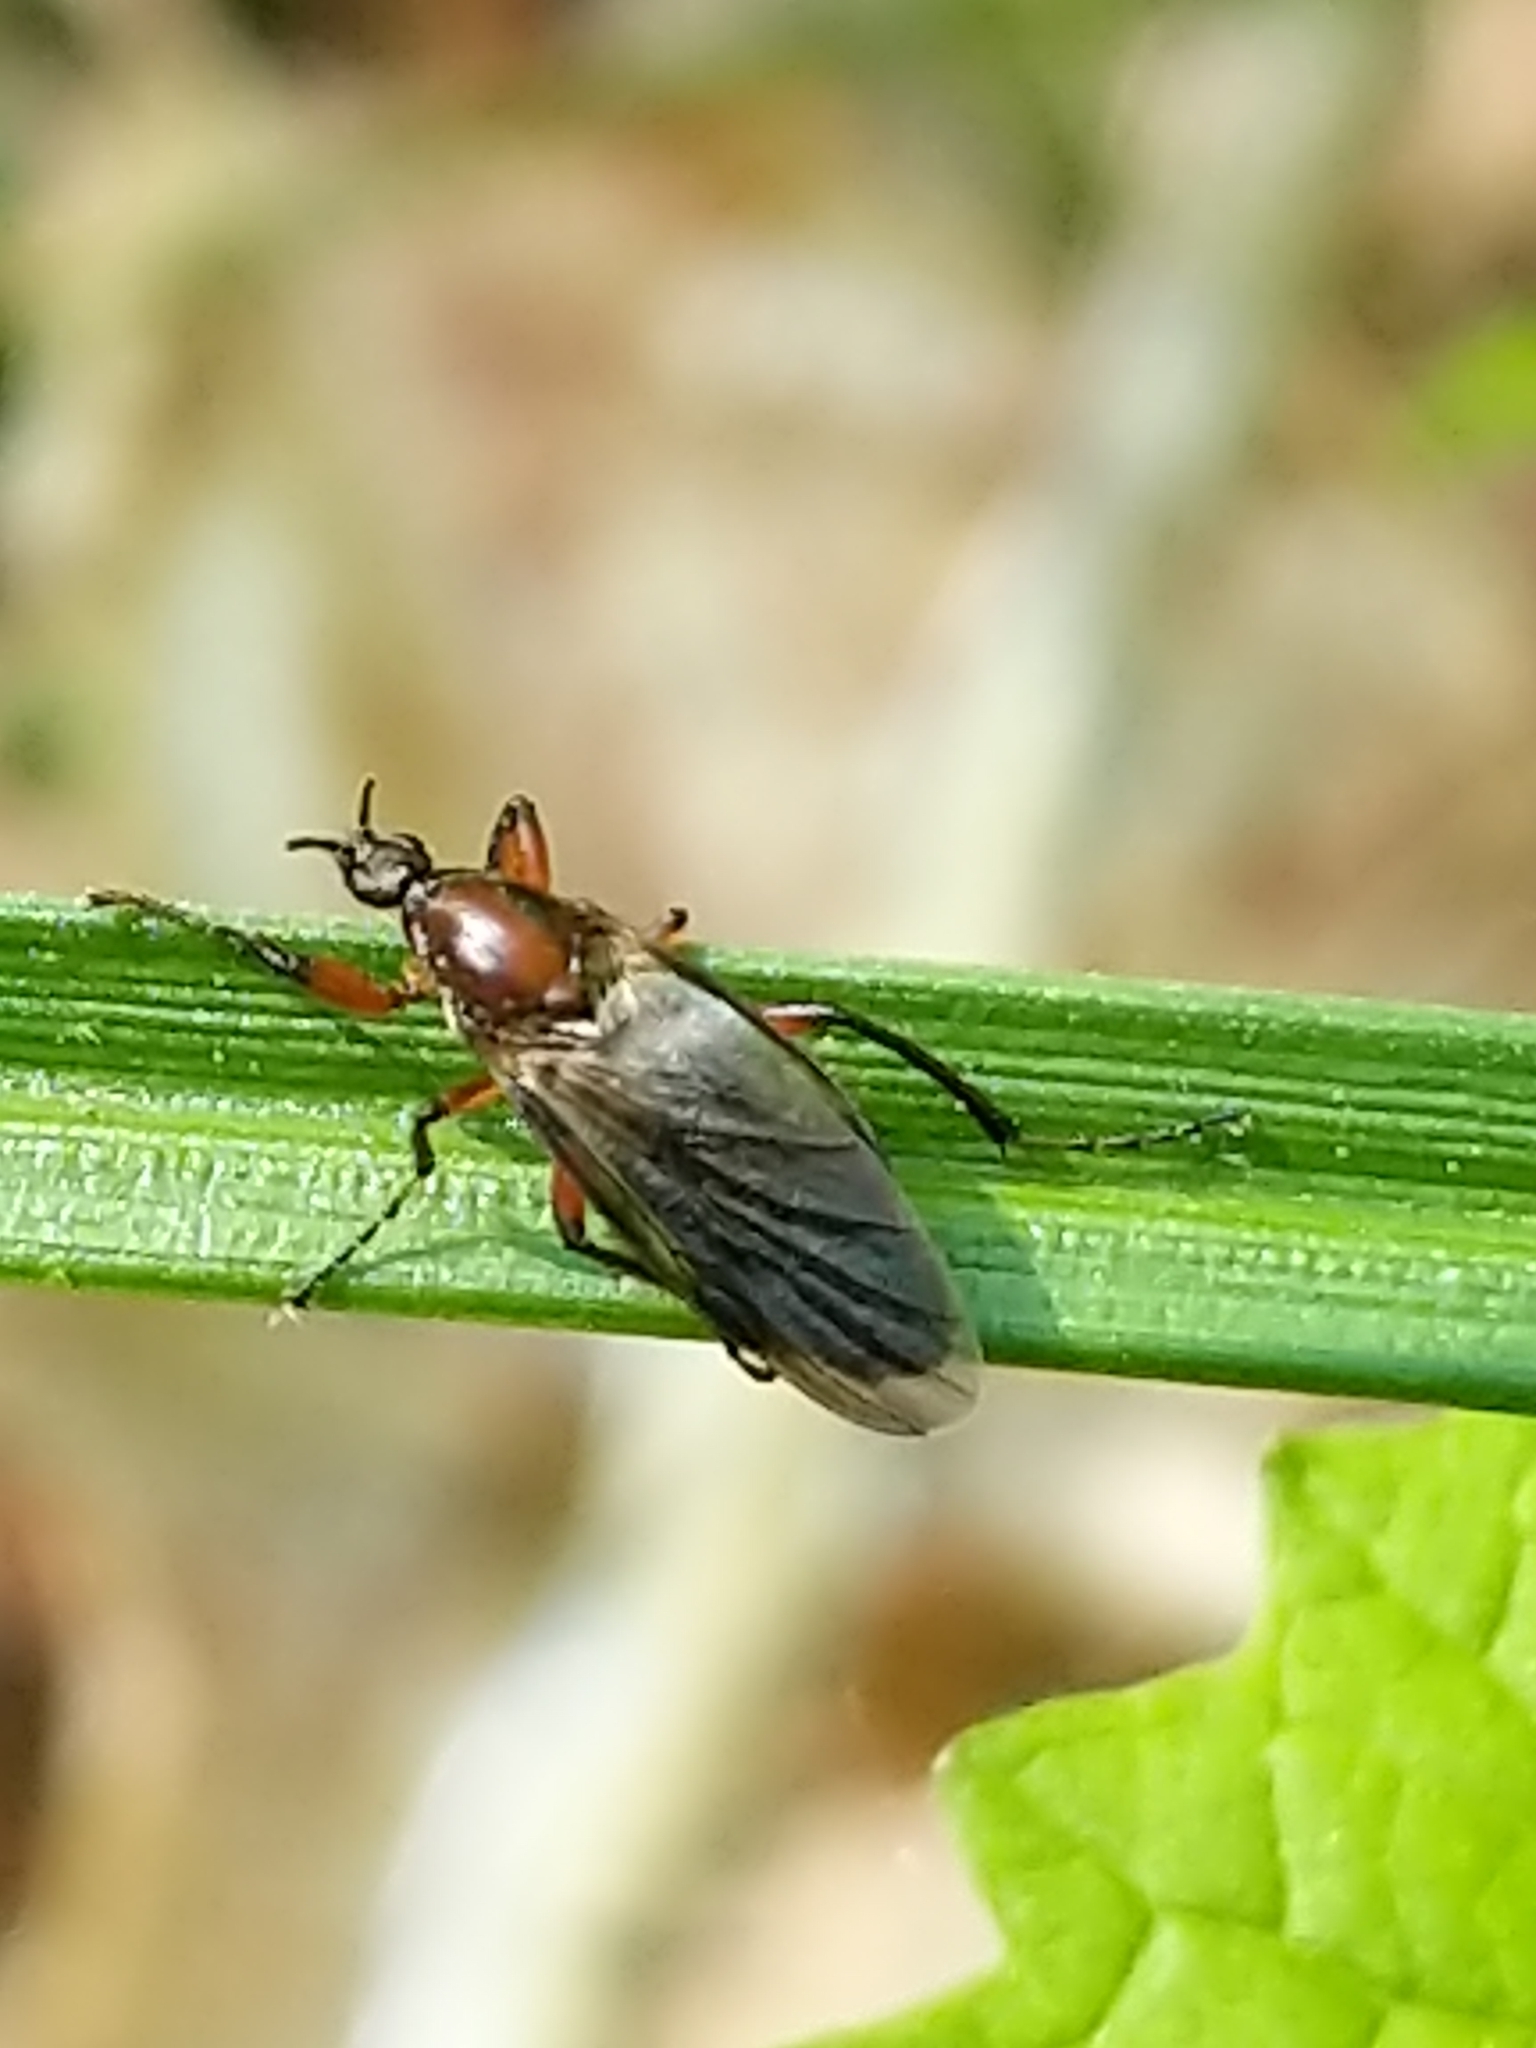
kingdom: Animalia
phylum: Arthropoda
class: Insecta
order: Diptera
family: Bibionidae
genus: Bibio
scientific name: Bibio articulatus
